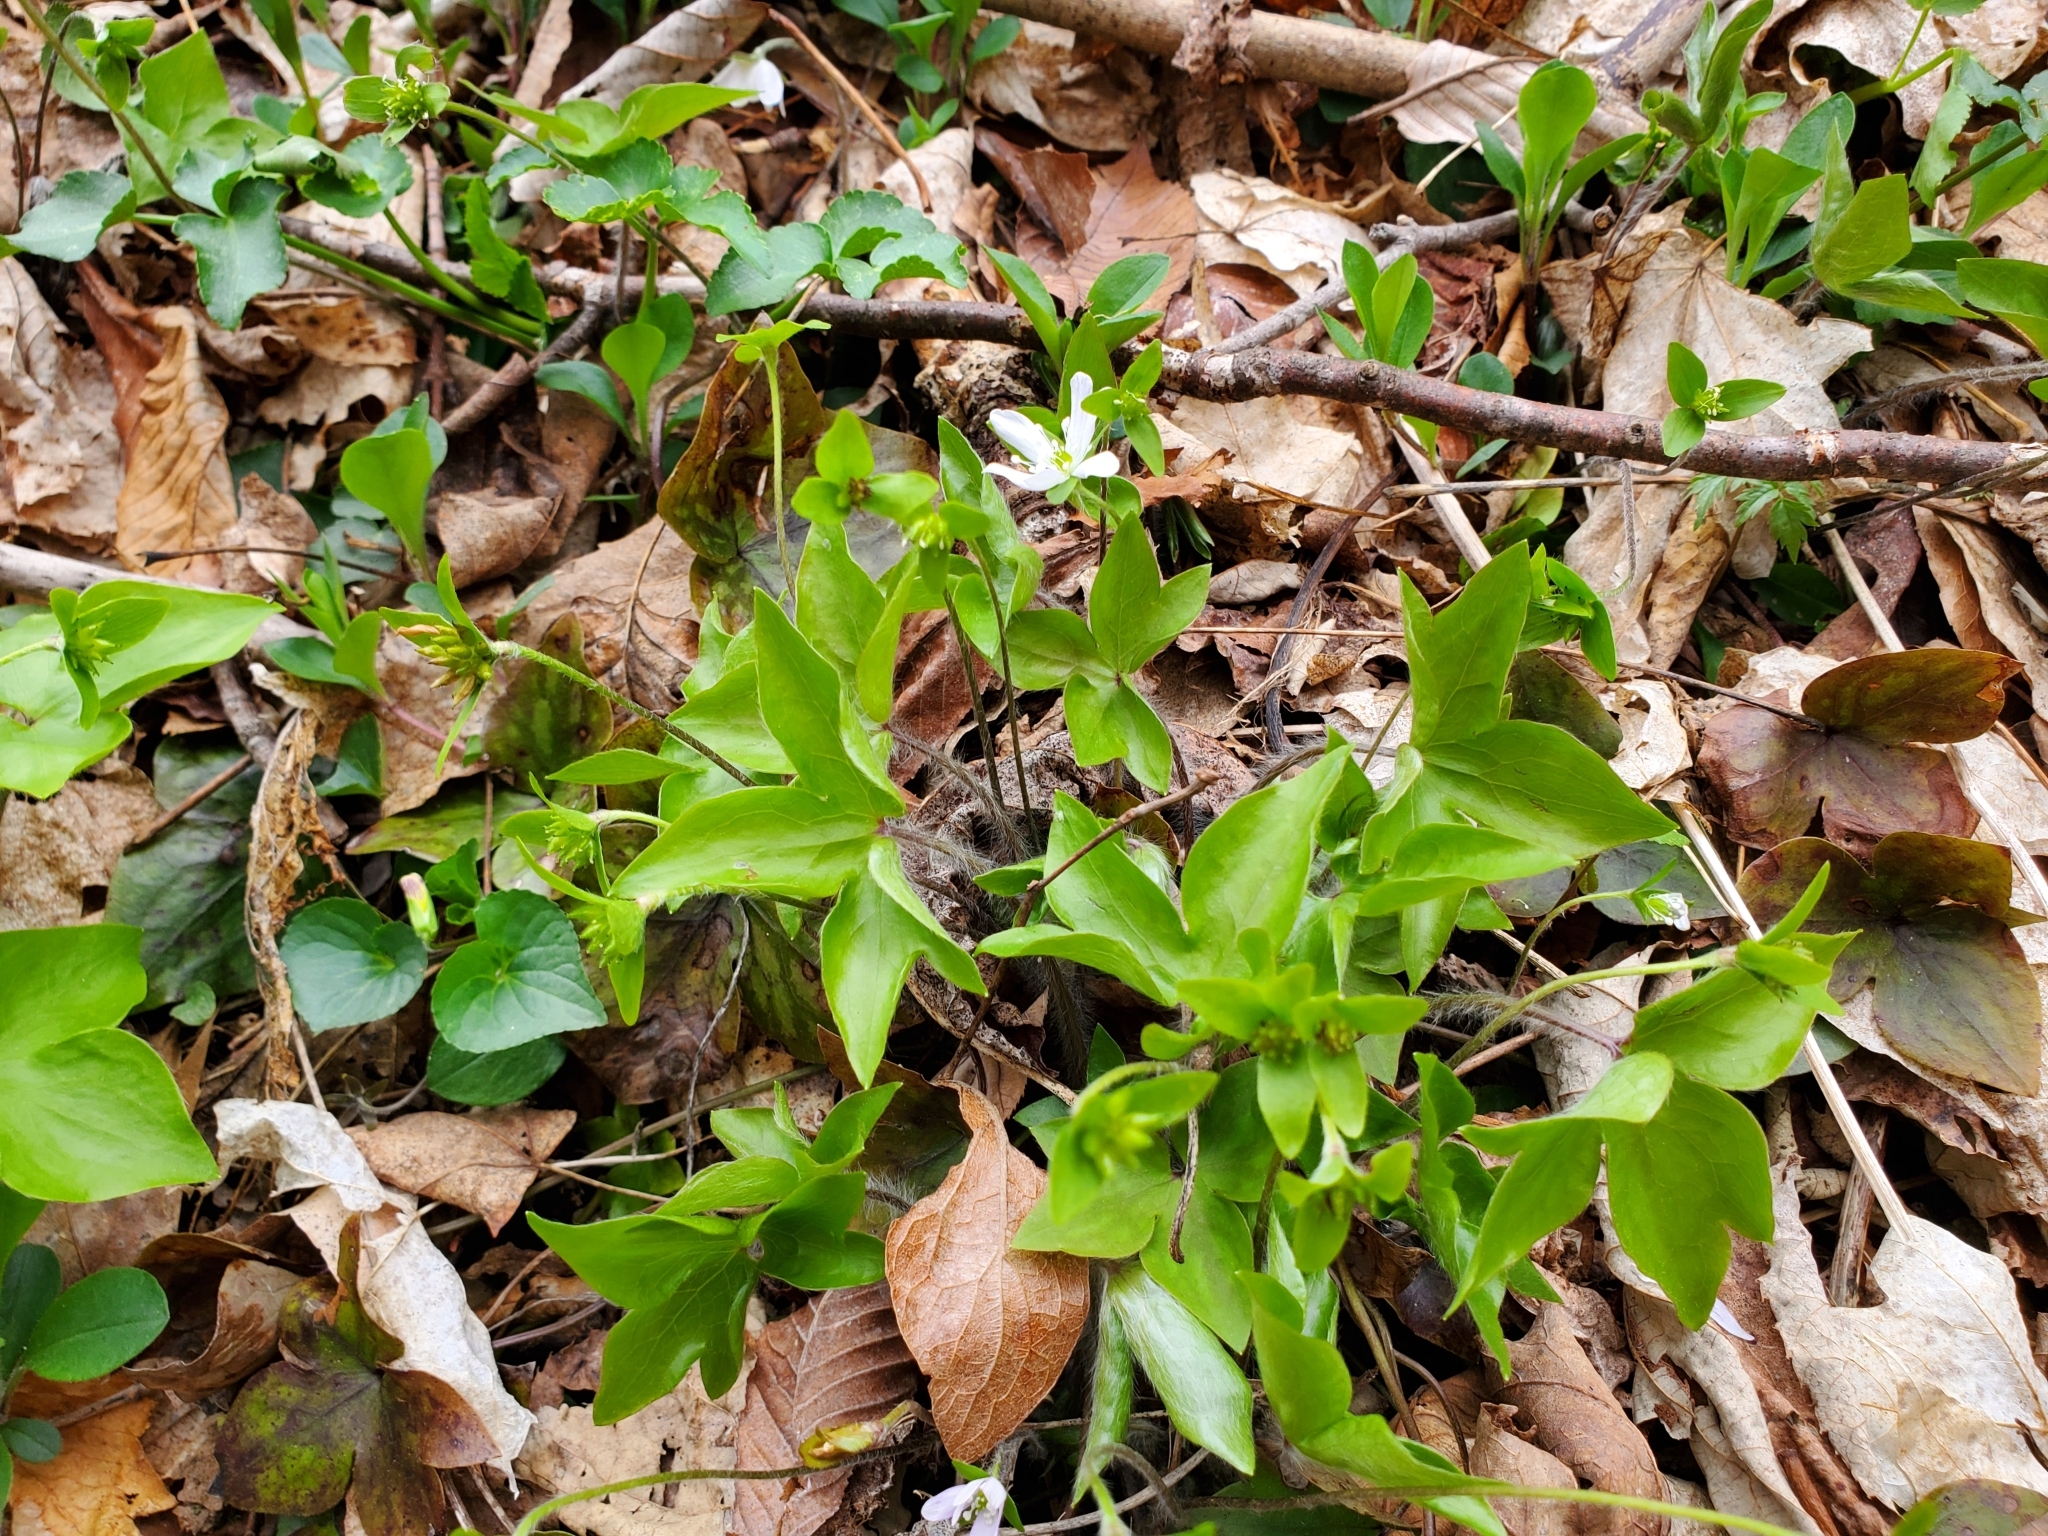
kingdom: Plantae
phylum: Tracheophyta
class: Magnoliopsida
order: Ranunculales
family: Ranunculaceae
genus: Hepatica
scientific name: Hepatica acutiloba
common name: Sharp-lobed hepatica
